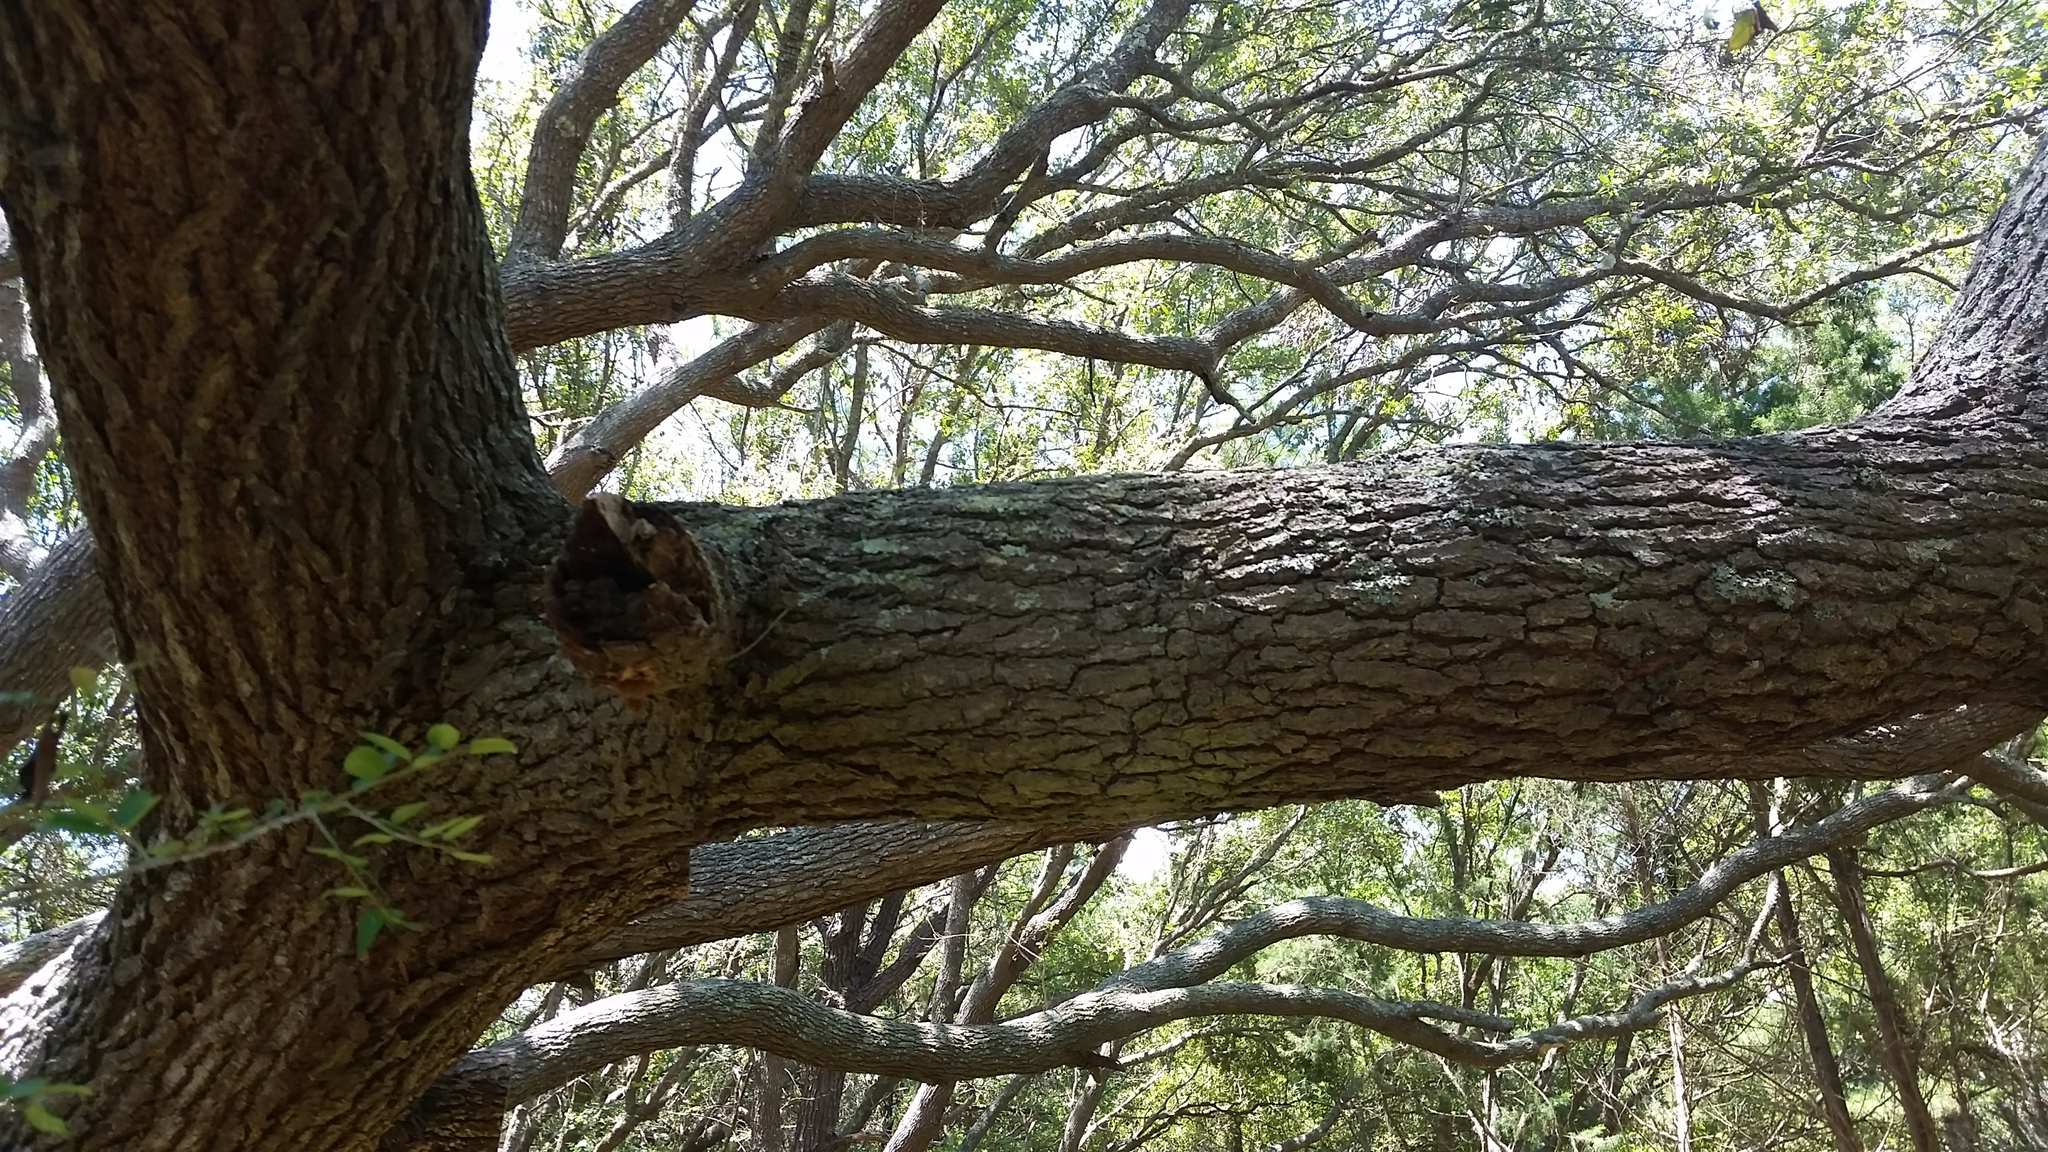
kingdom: Plantae
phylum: Tracheophyta
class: Magnoliopsida
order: Fagales
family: Fagaceae
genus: Quercus
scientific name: Quercus virginiana
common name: Southern live oak
